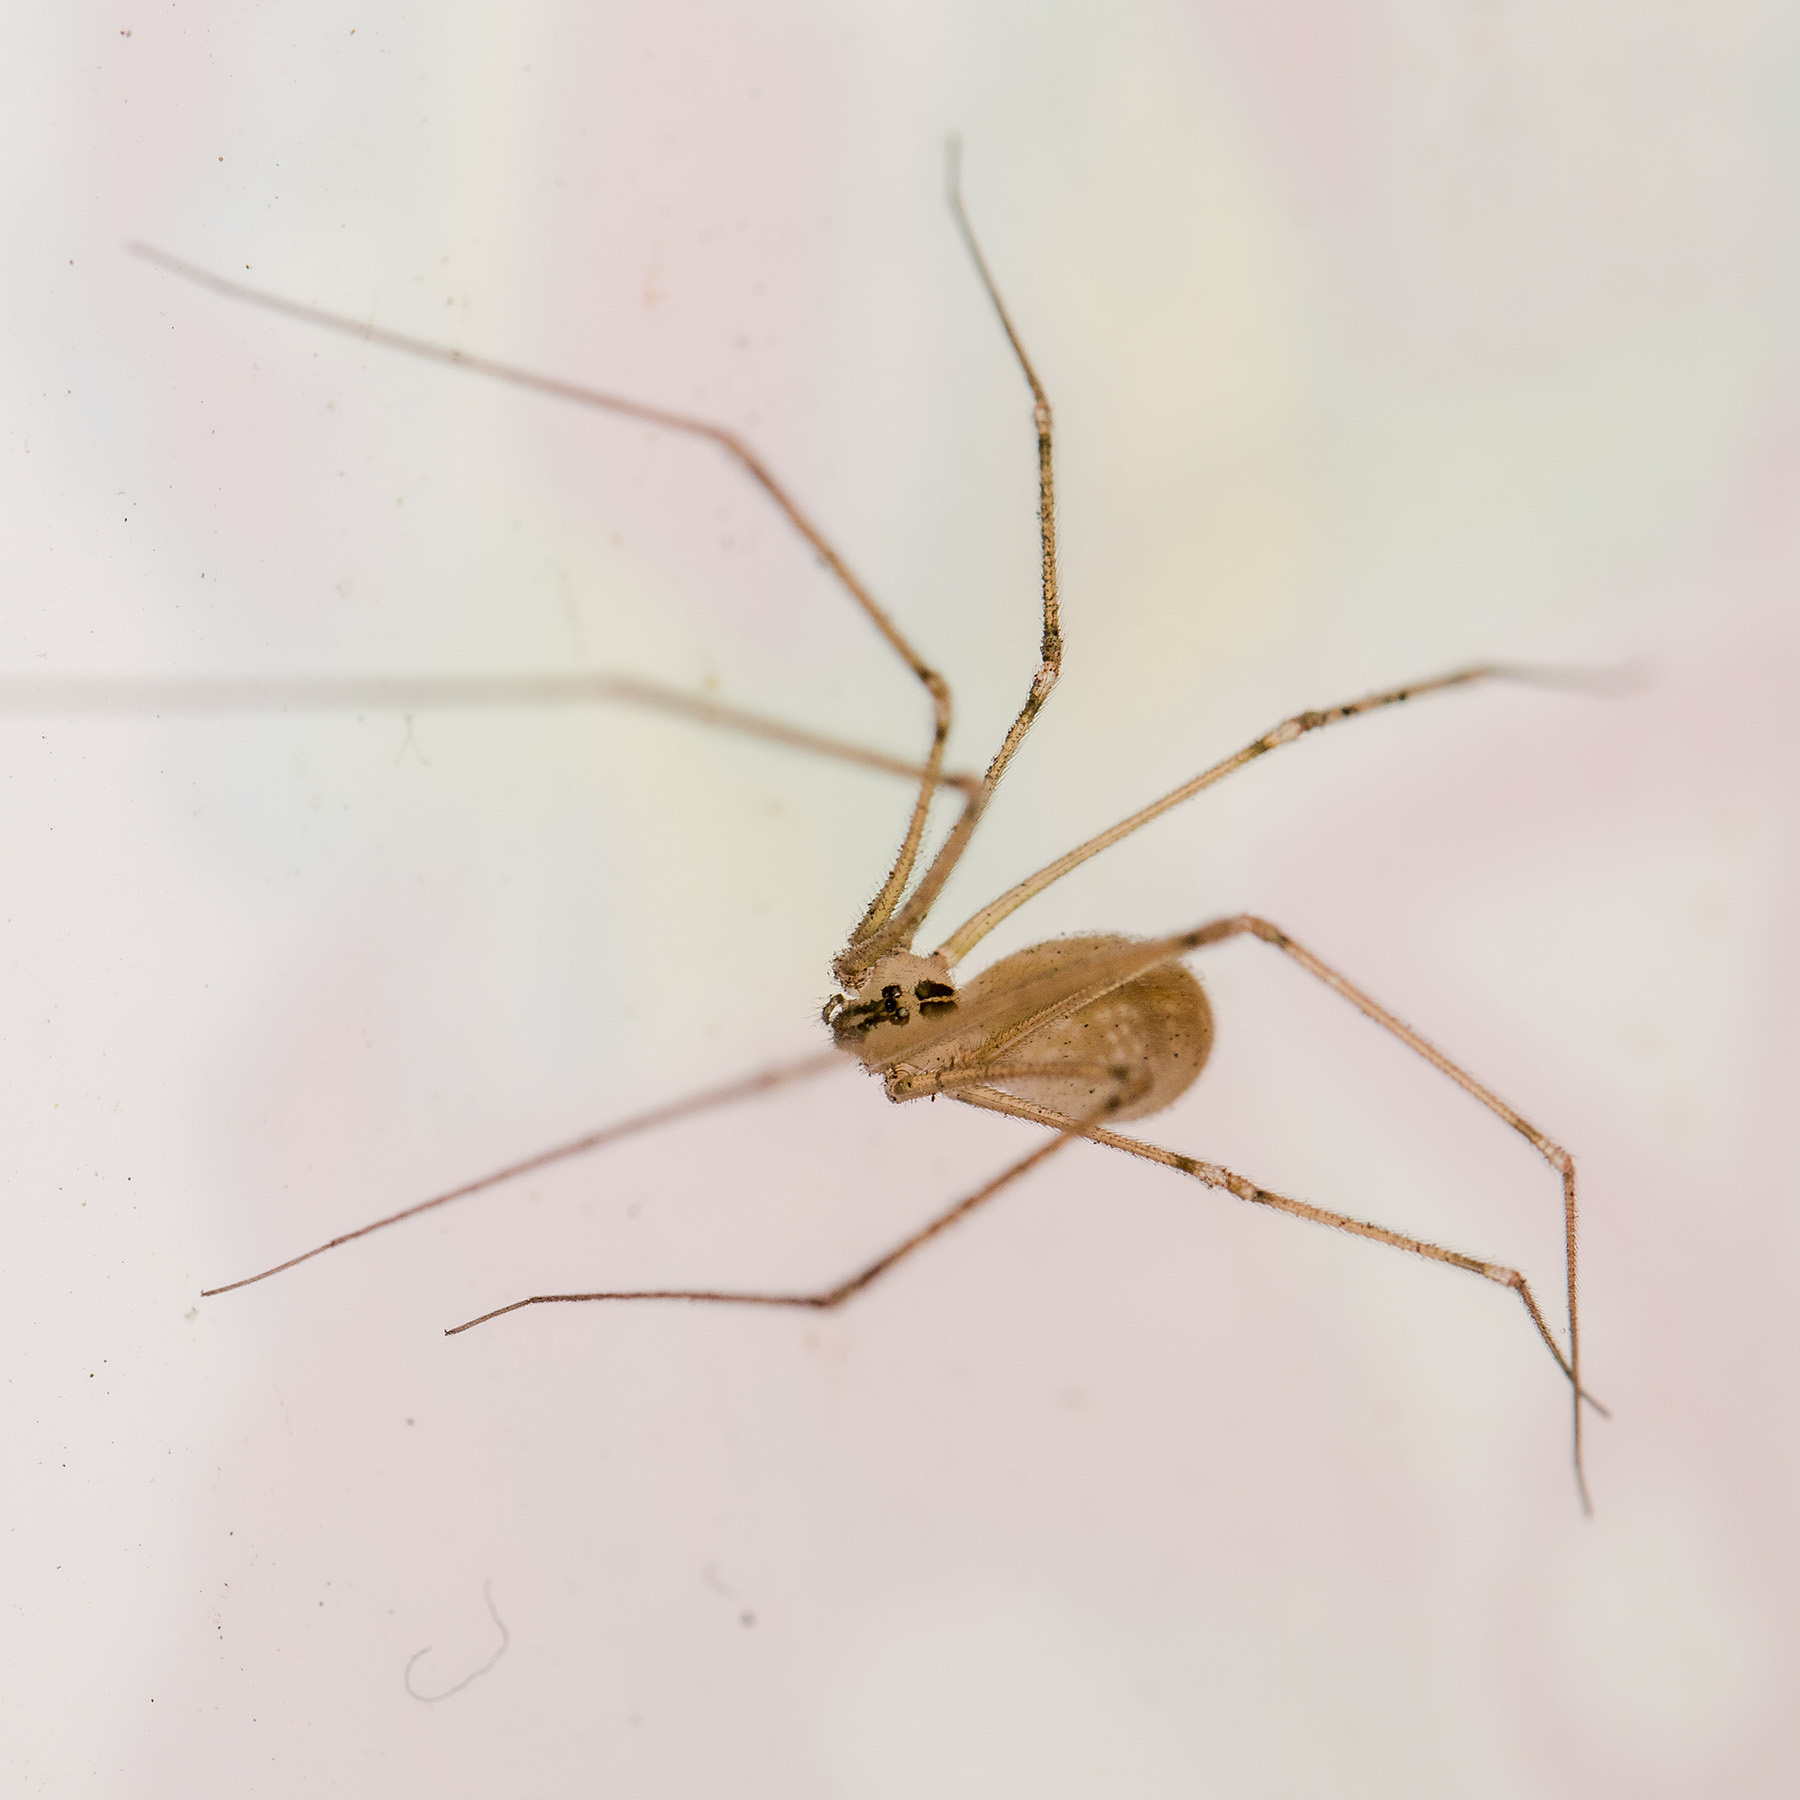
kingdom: Animalia
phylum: Arthropoda
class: Arachnida
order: Araneae
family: Pholcidae
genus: Pholcus
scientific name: Pholcus manueli
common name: Cellar spider
